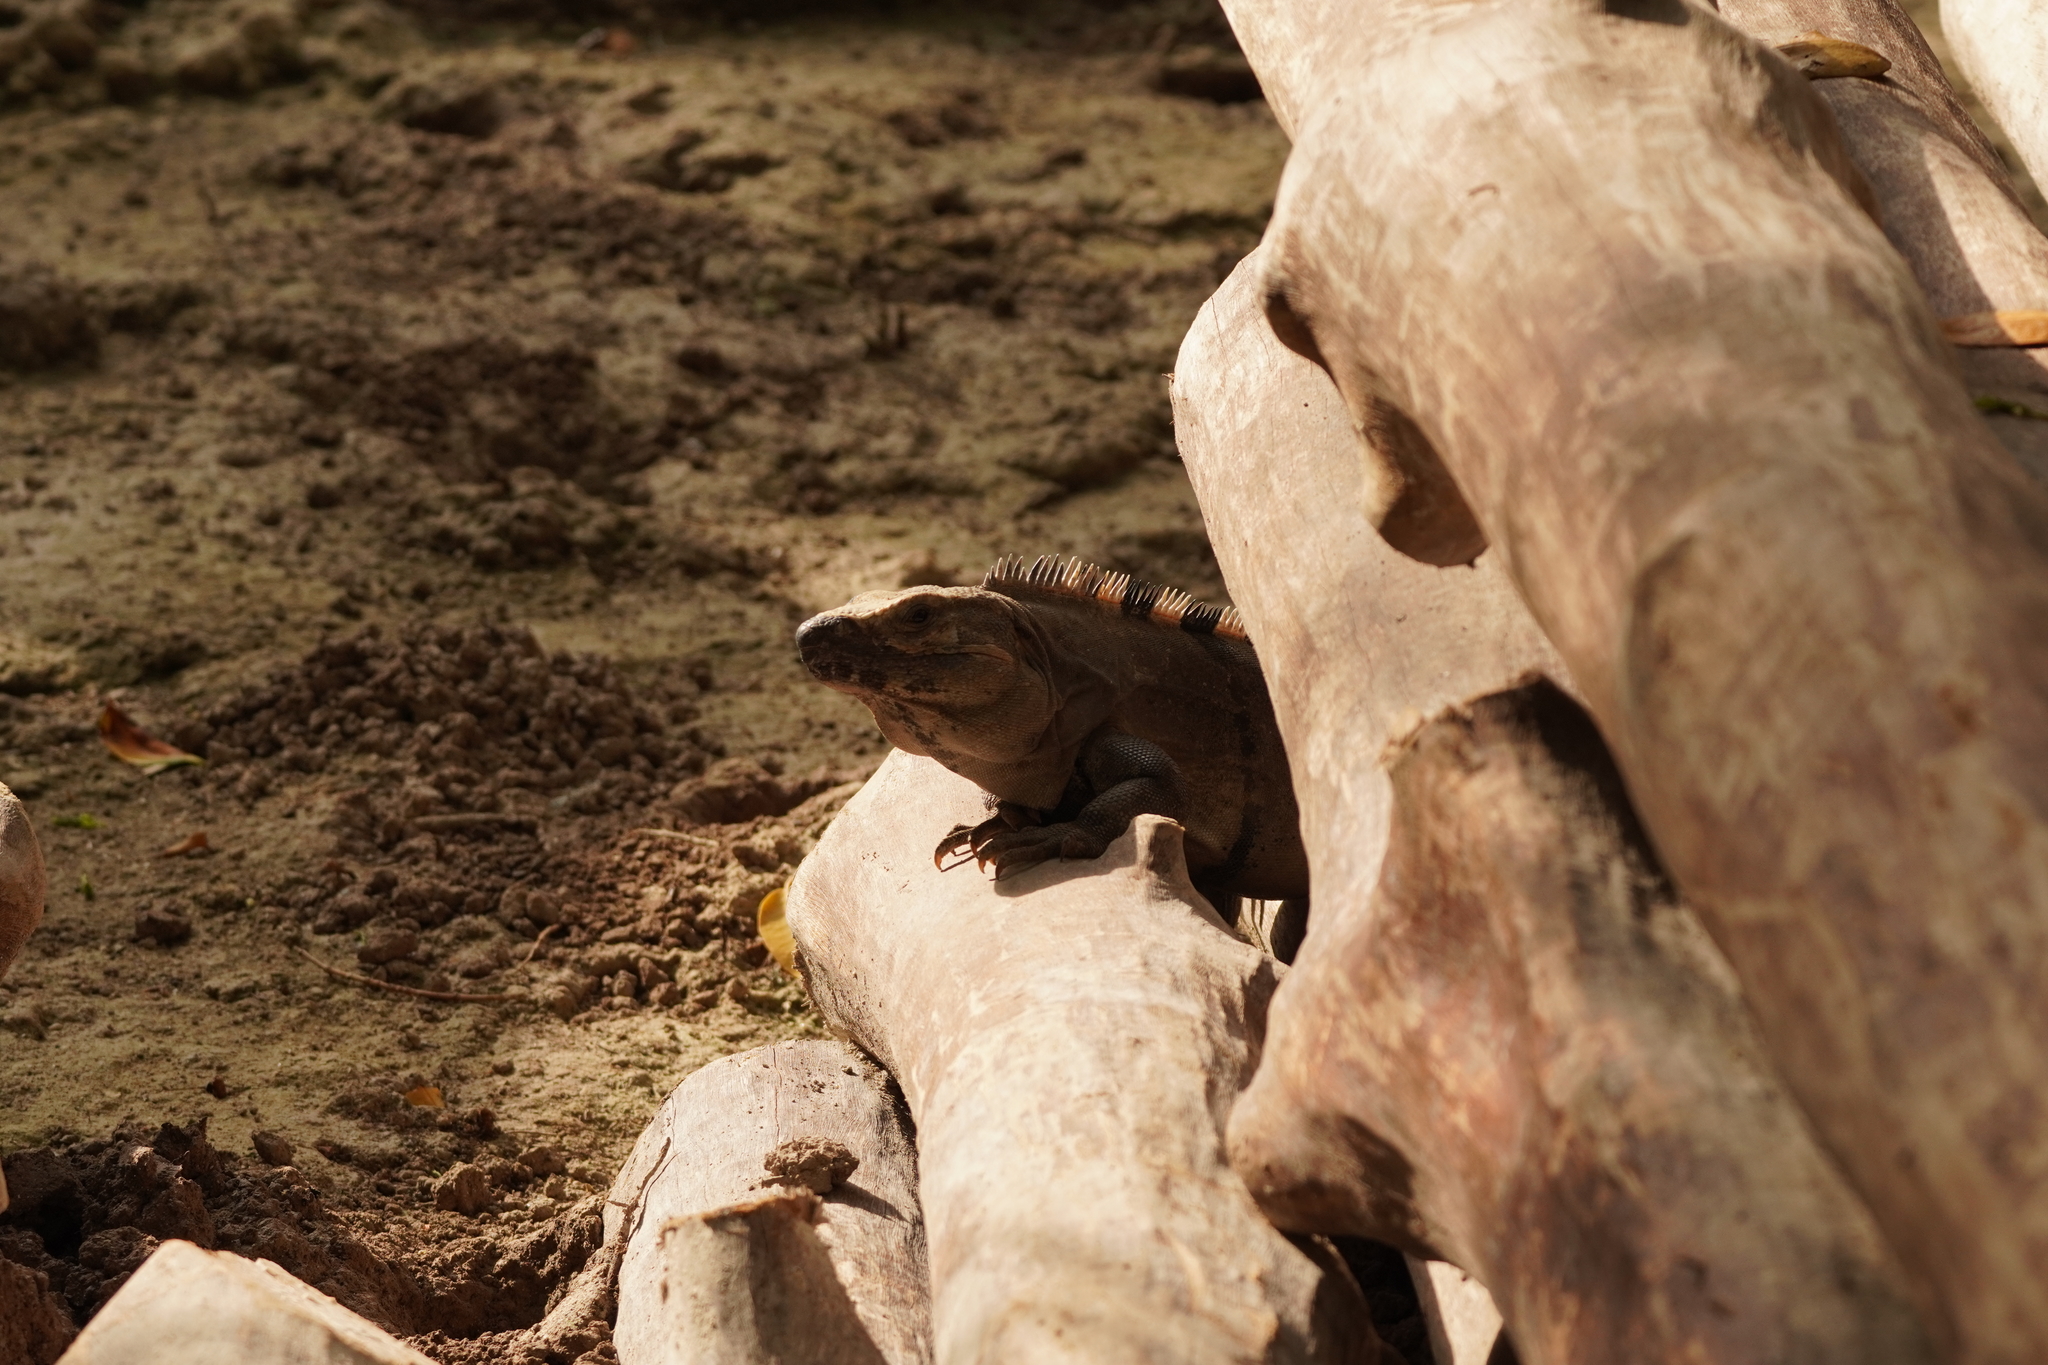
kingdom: Animalia
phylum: Chordata
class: Squamata
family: Iguanidae
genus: Ctenosaura
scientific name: Ctenosaura similis
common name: Black spiny-tailed iguana
